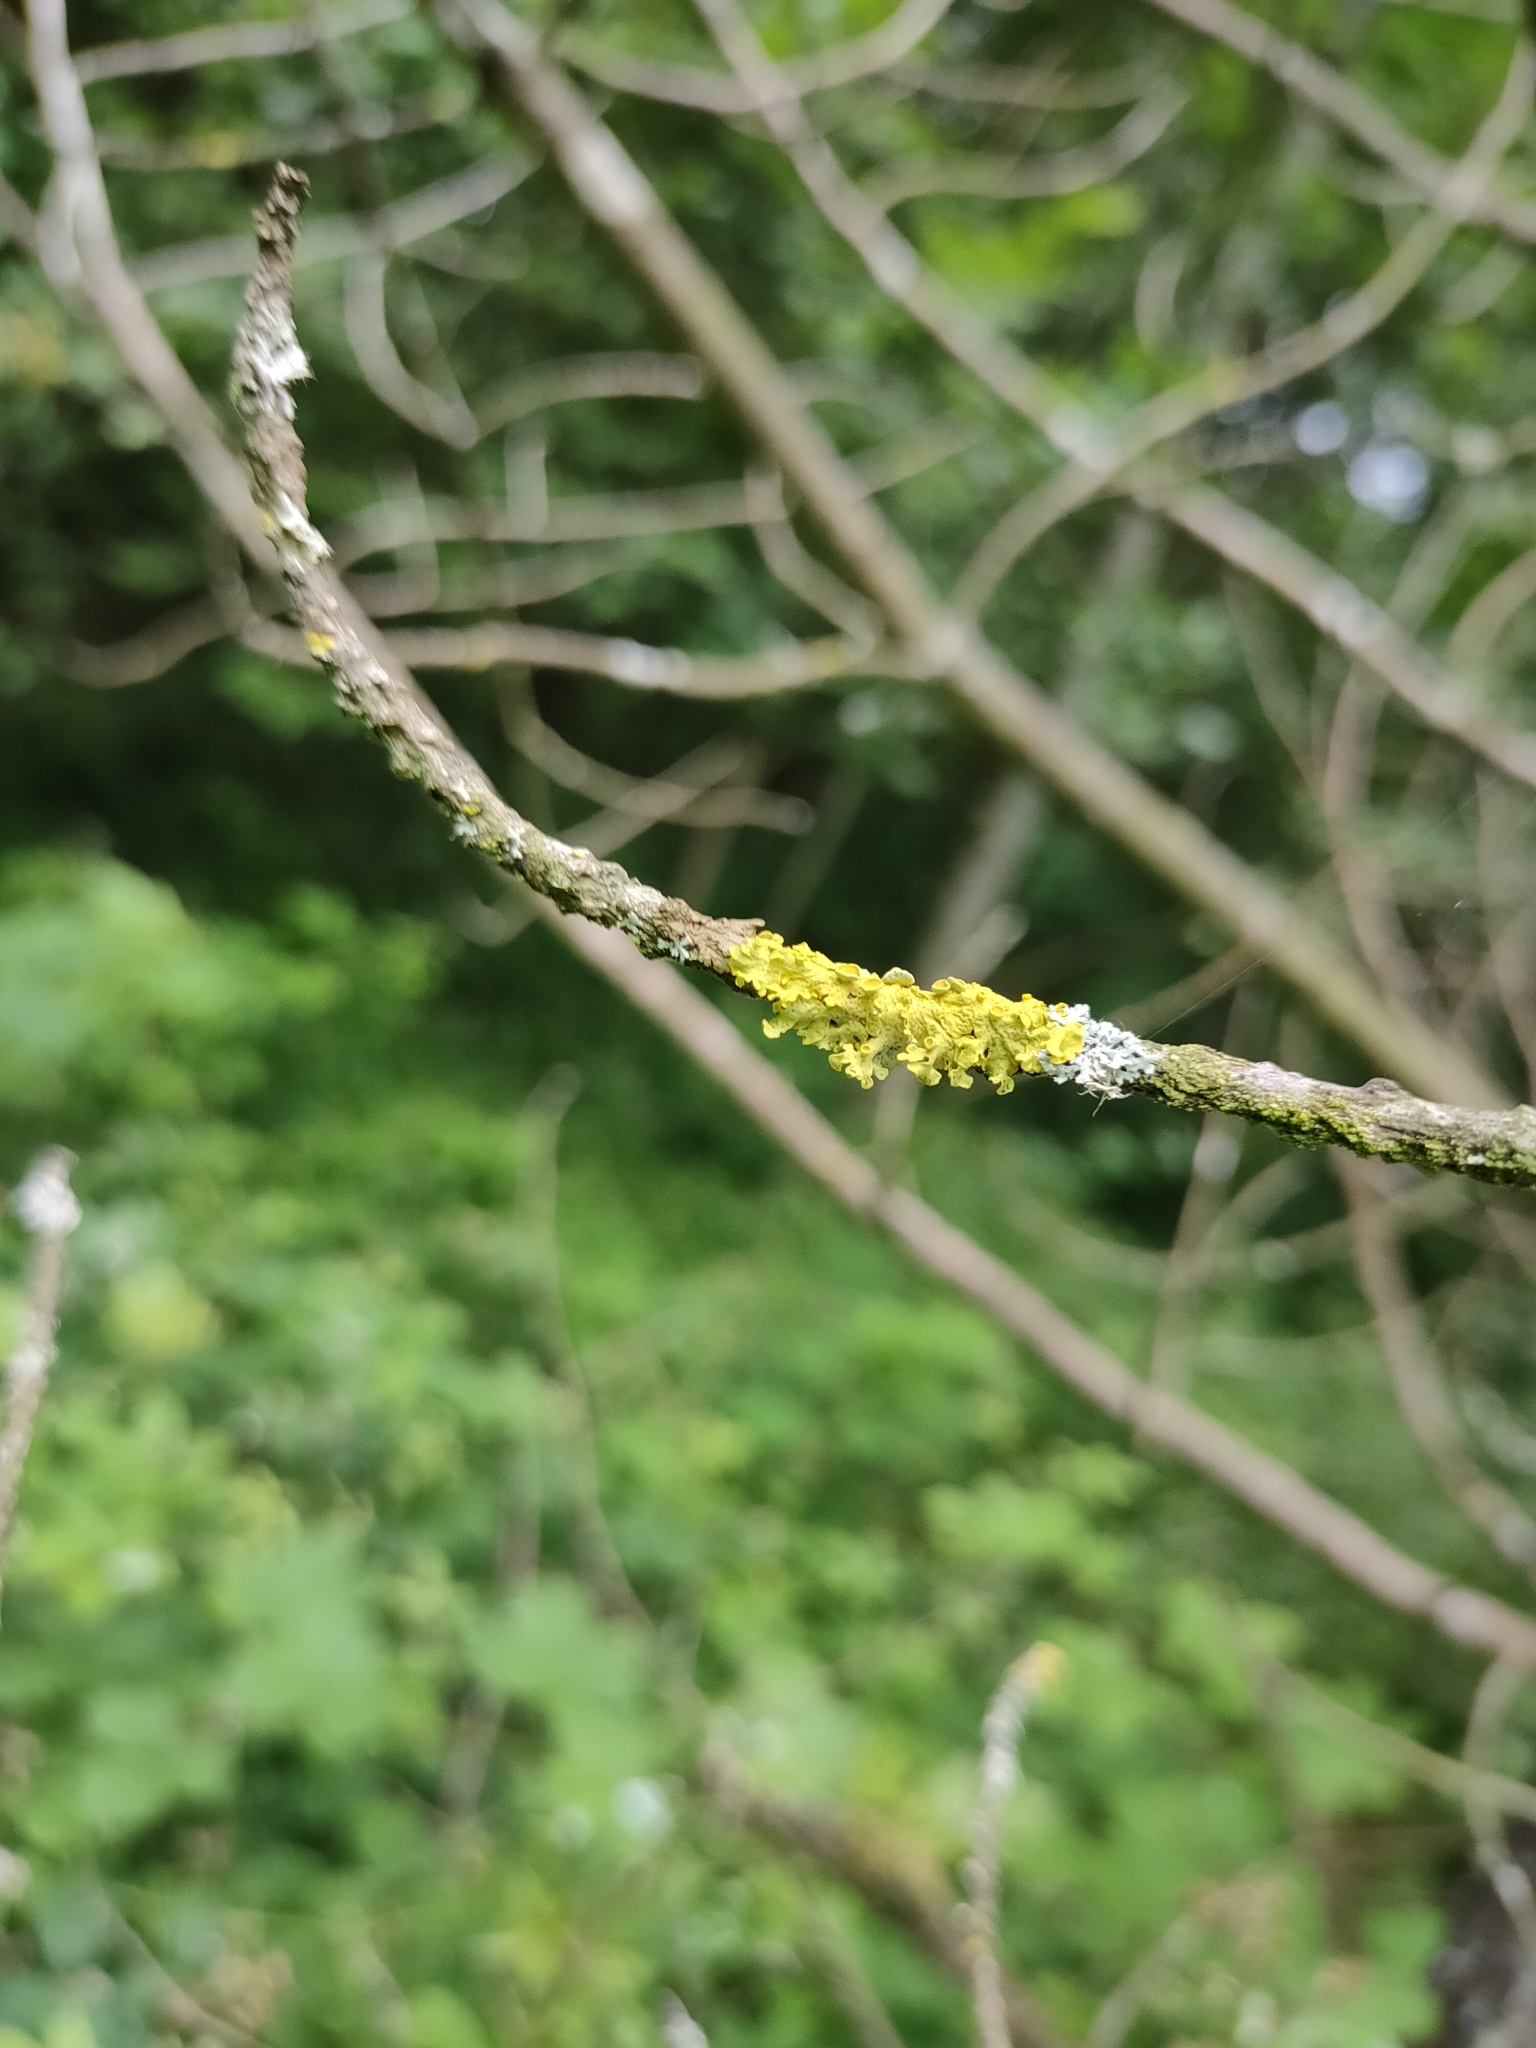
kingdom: Fungi
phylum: Ascomycota
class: Lecanoromycetes
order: Teloschistales
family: Teloschistaceae
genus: Xanthoria
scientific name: Xanthoria parietina
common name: Common orange lichen
